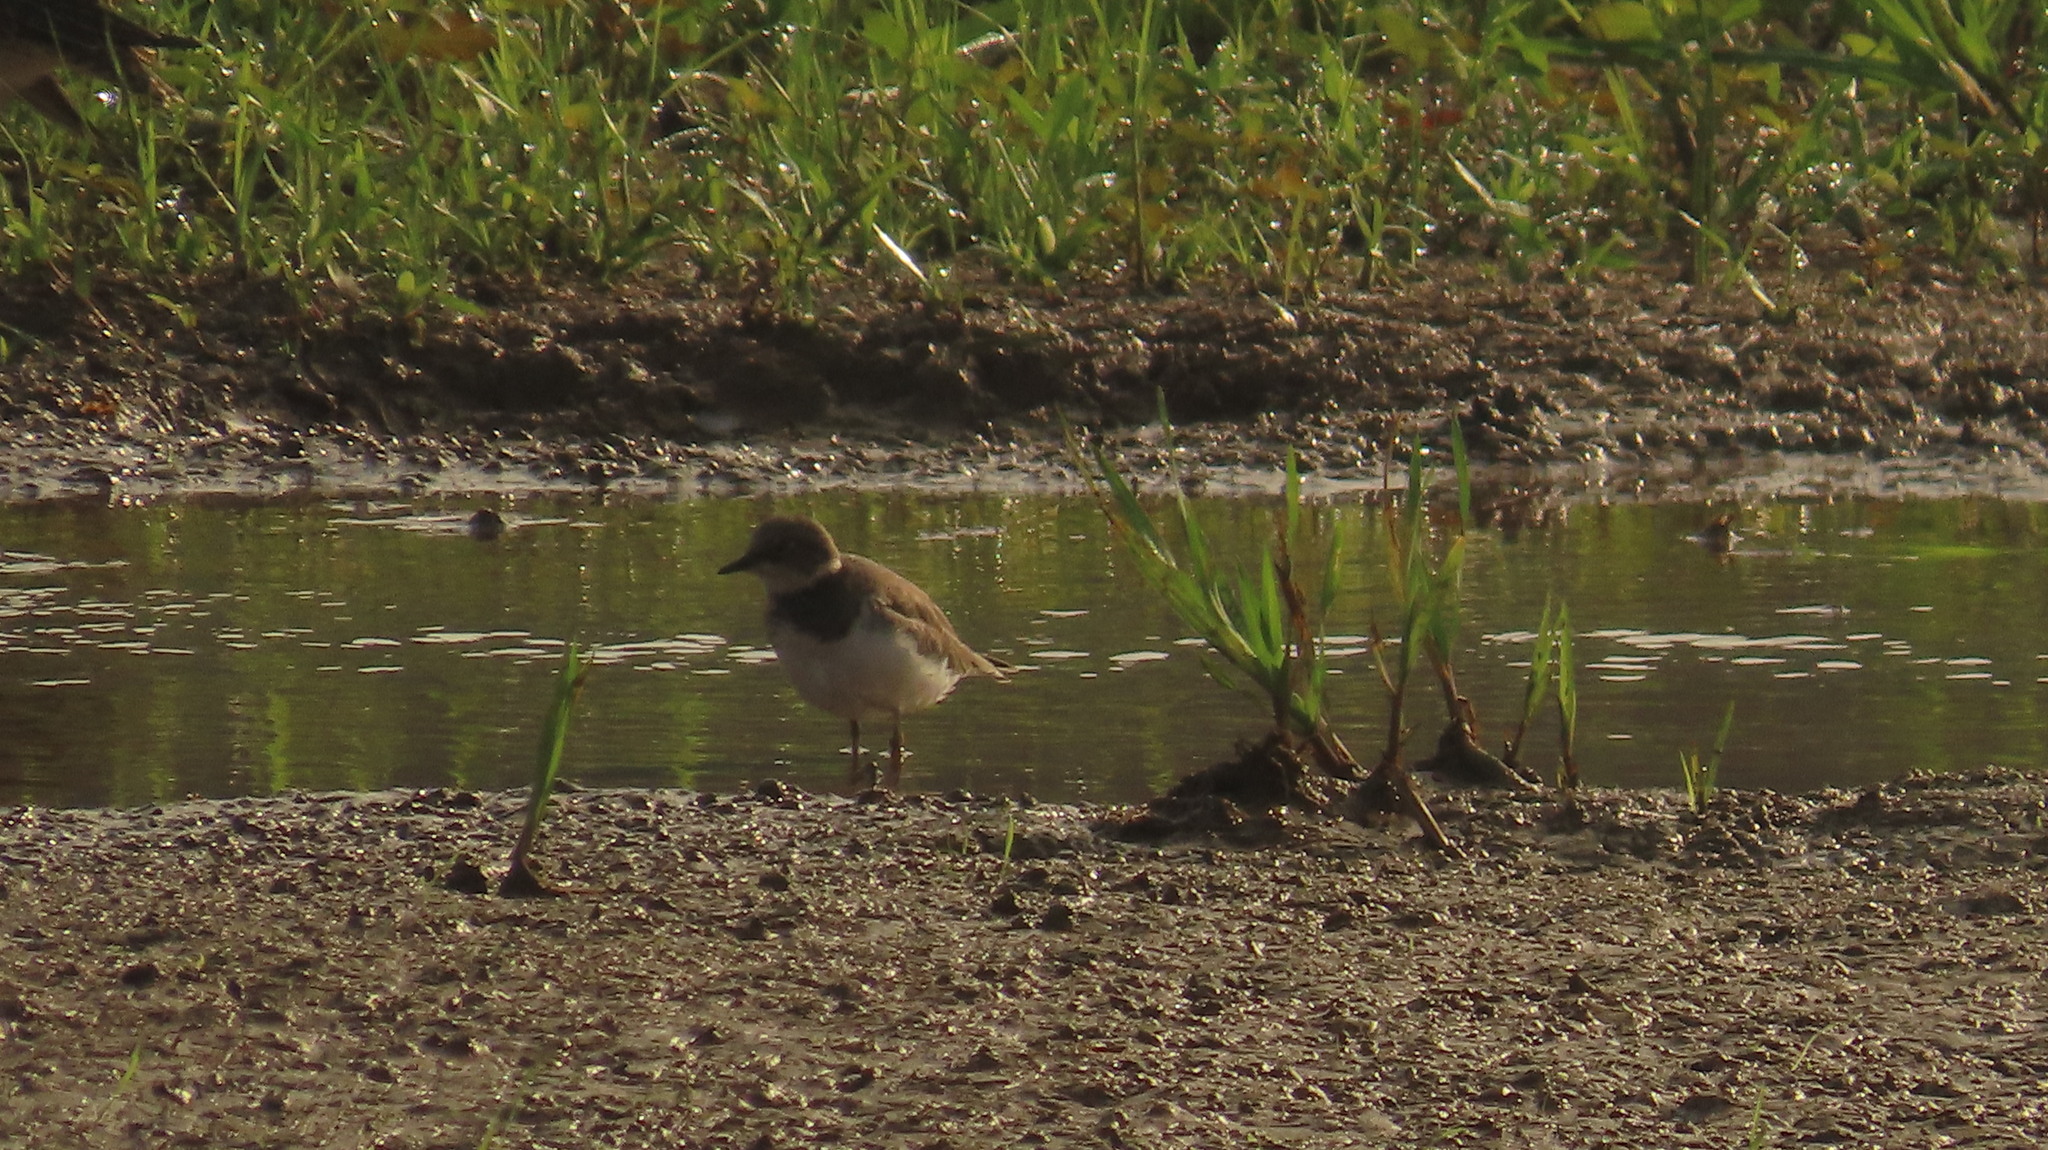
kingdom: Animalia
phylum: Chordata
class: Aves
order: Charadriiformes
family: Charadriidae
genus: Charadrius
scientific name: Charadrius dubius
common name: Little ringed plover
